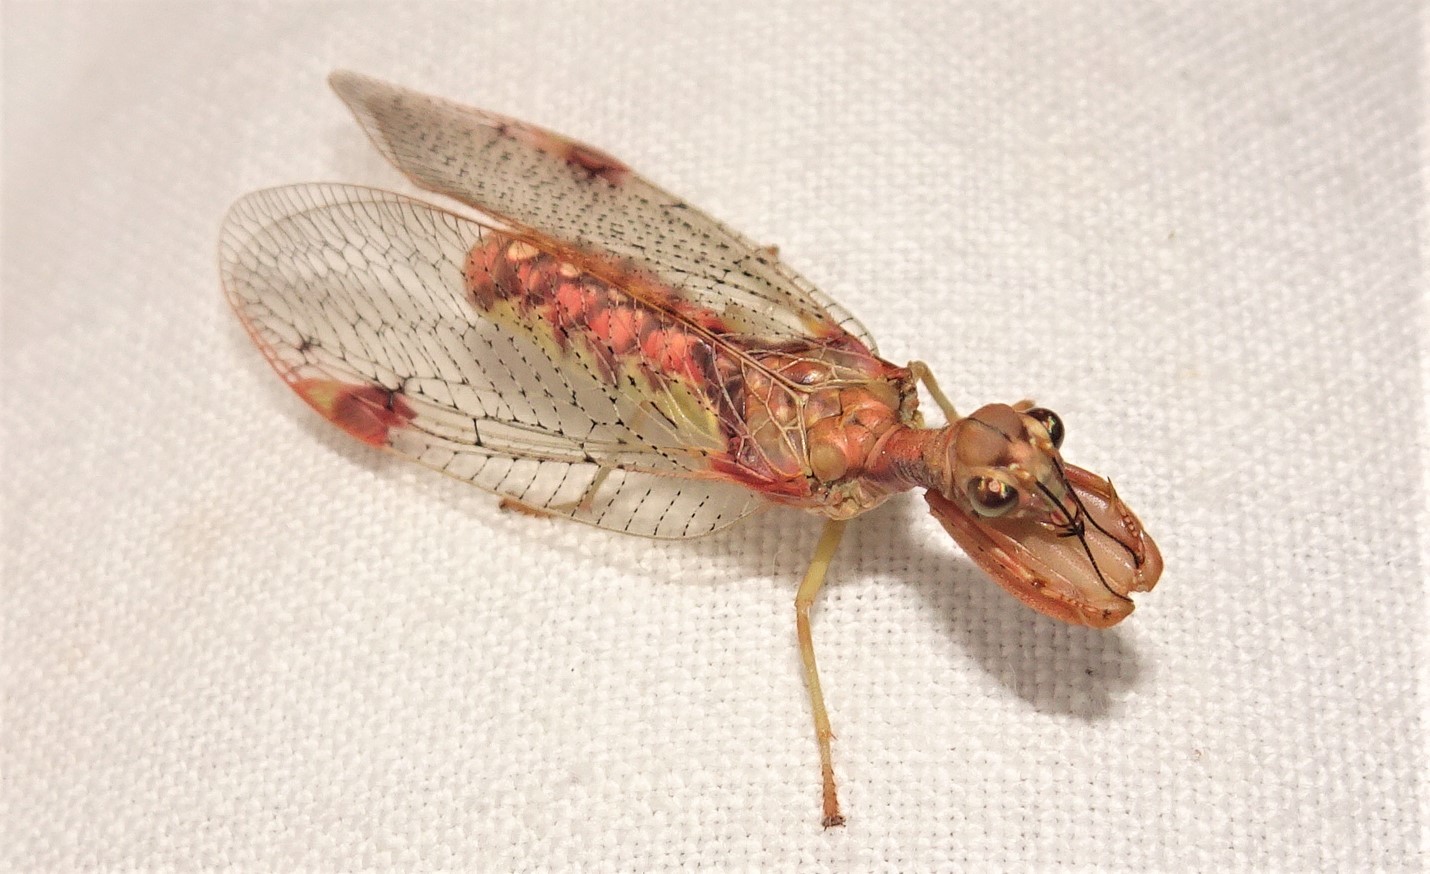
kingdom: Animalia
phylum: Arthropoda
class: Insecta
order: Neuroptera
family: Mantispidae
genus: Ditaxis
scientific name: Ditaxis biseriata
